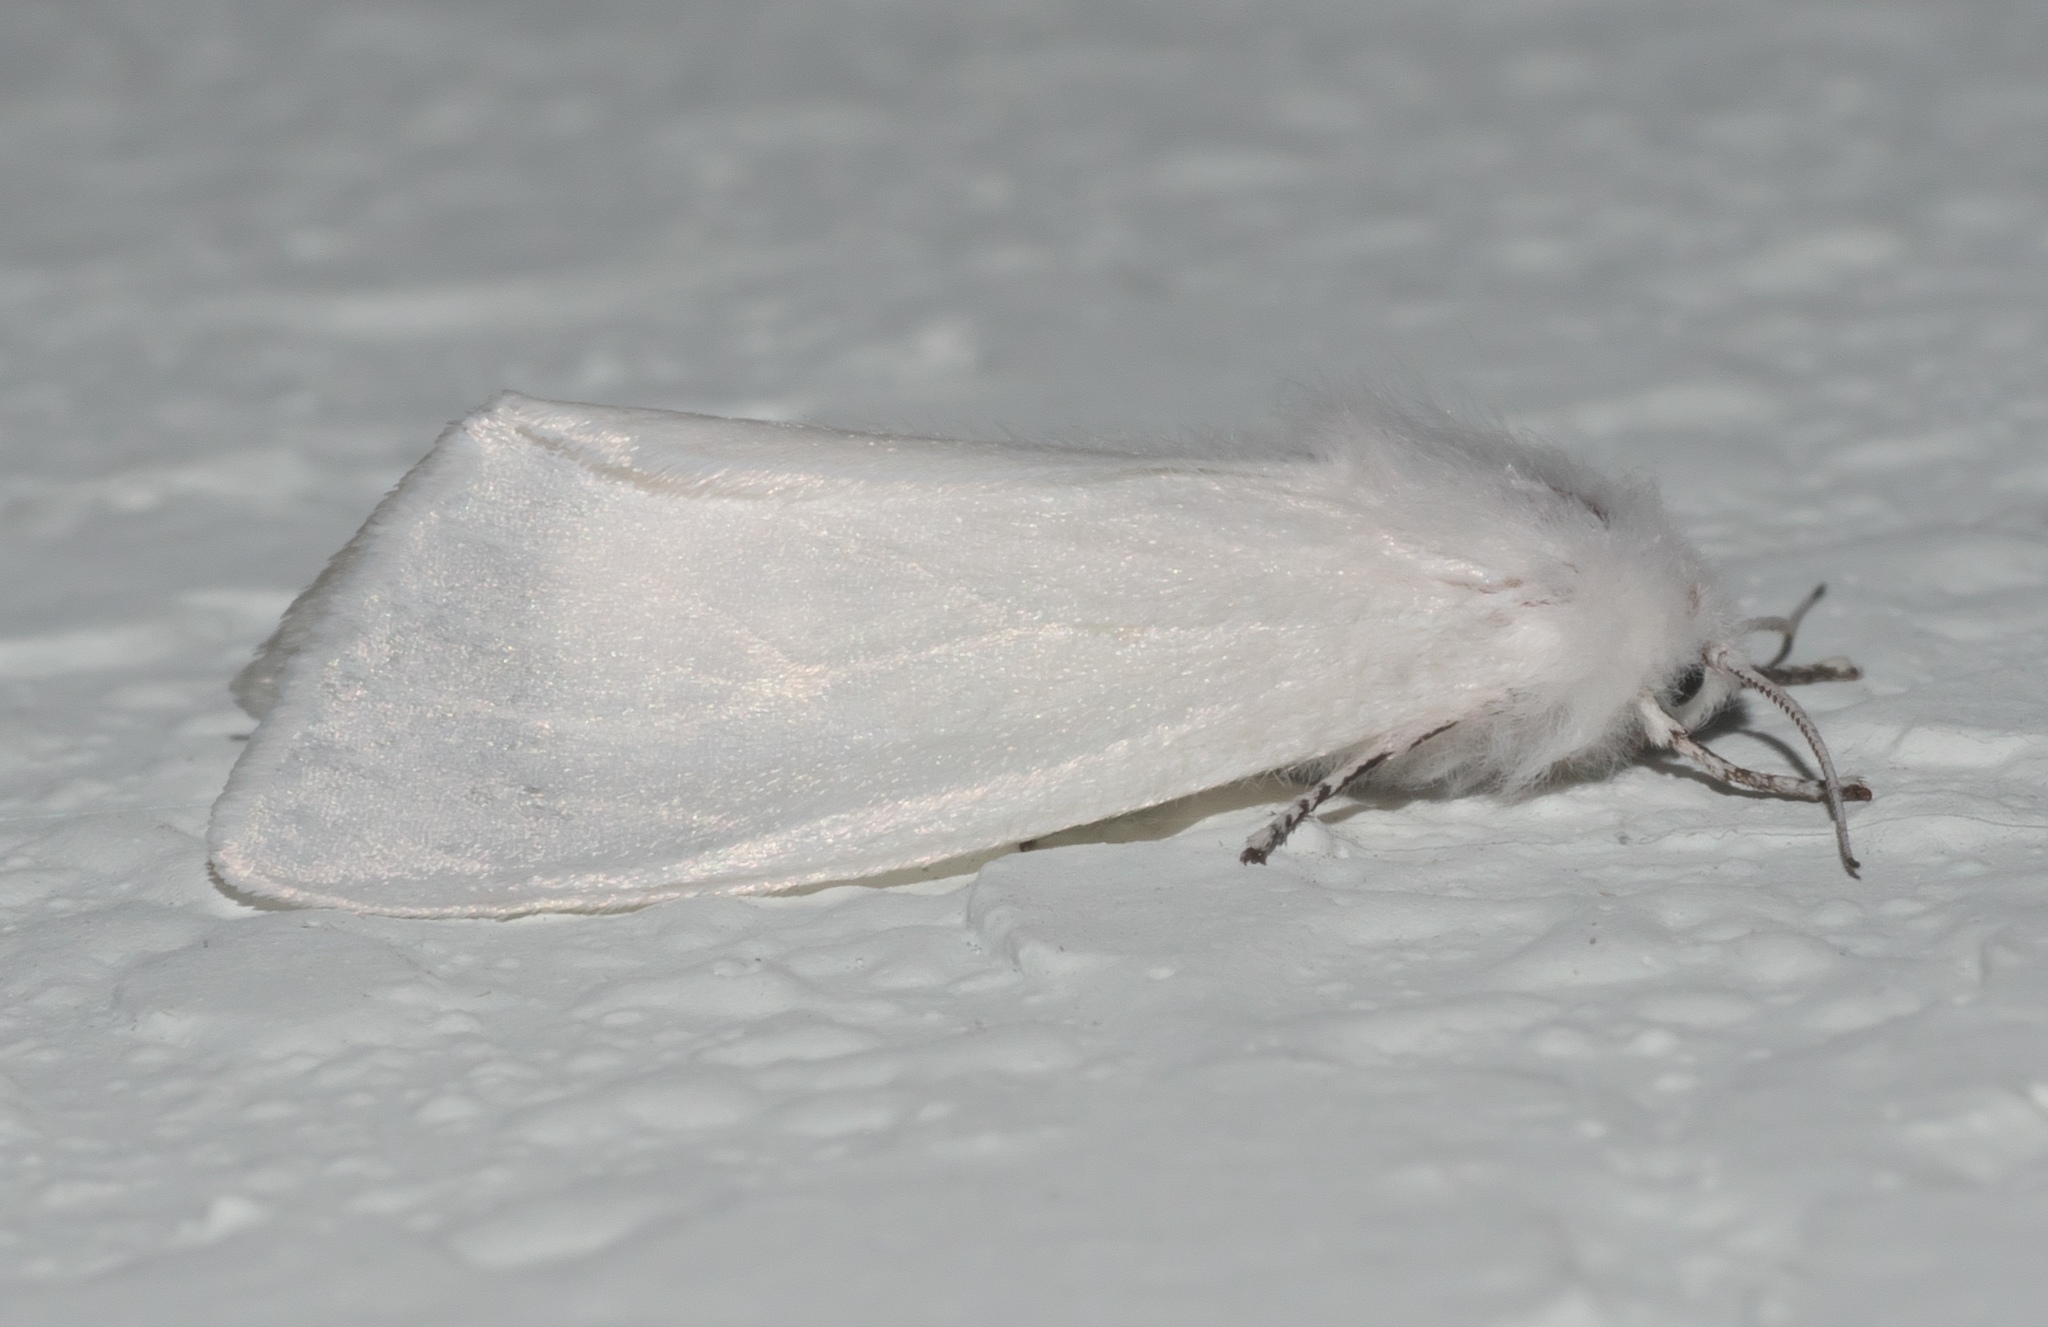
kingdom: Animalia
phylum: Arthropoda
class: Insecta
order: Lepidoptera
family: Erebidae
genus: Hyphantria
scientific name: Hyphantria cunea
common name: American white moth
